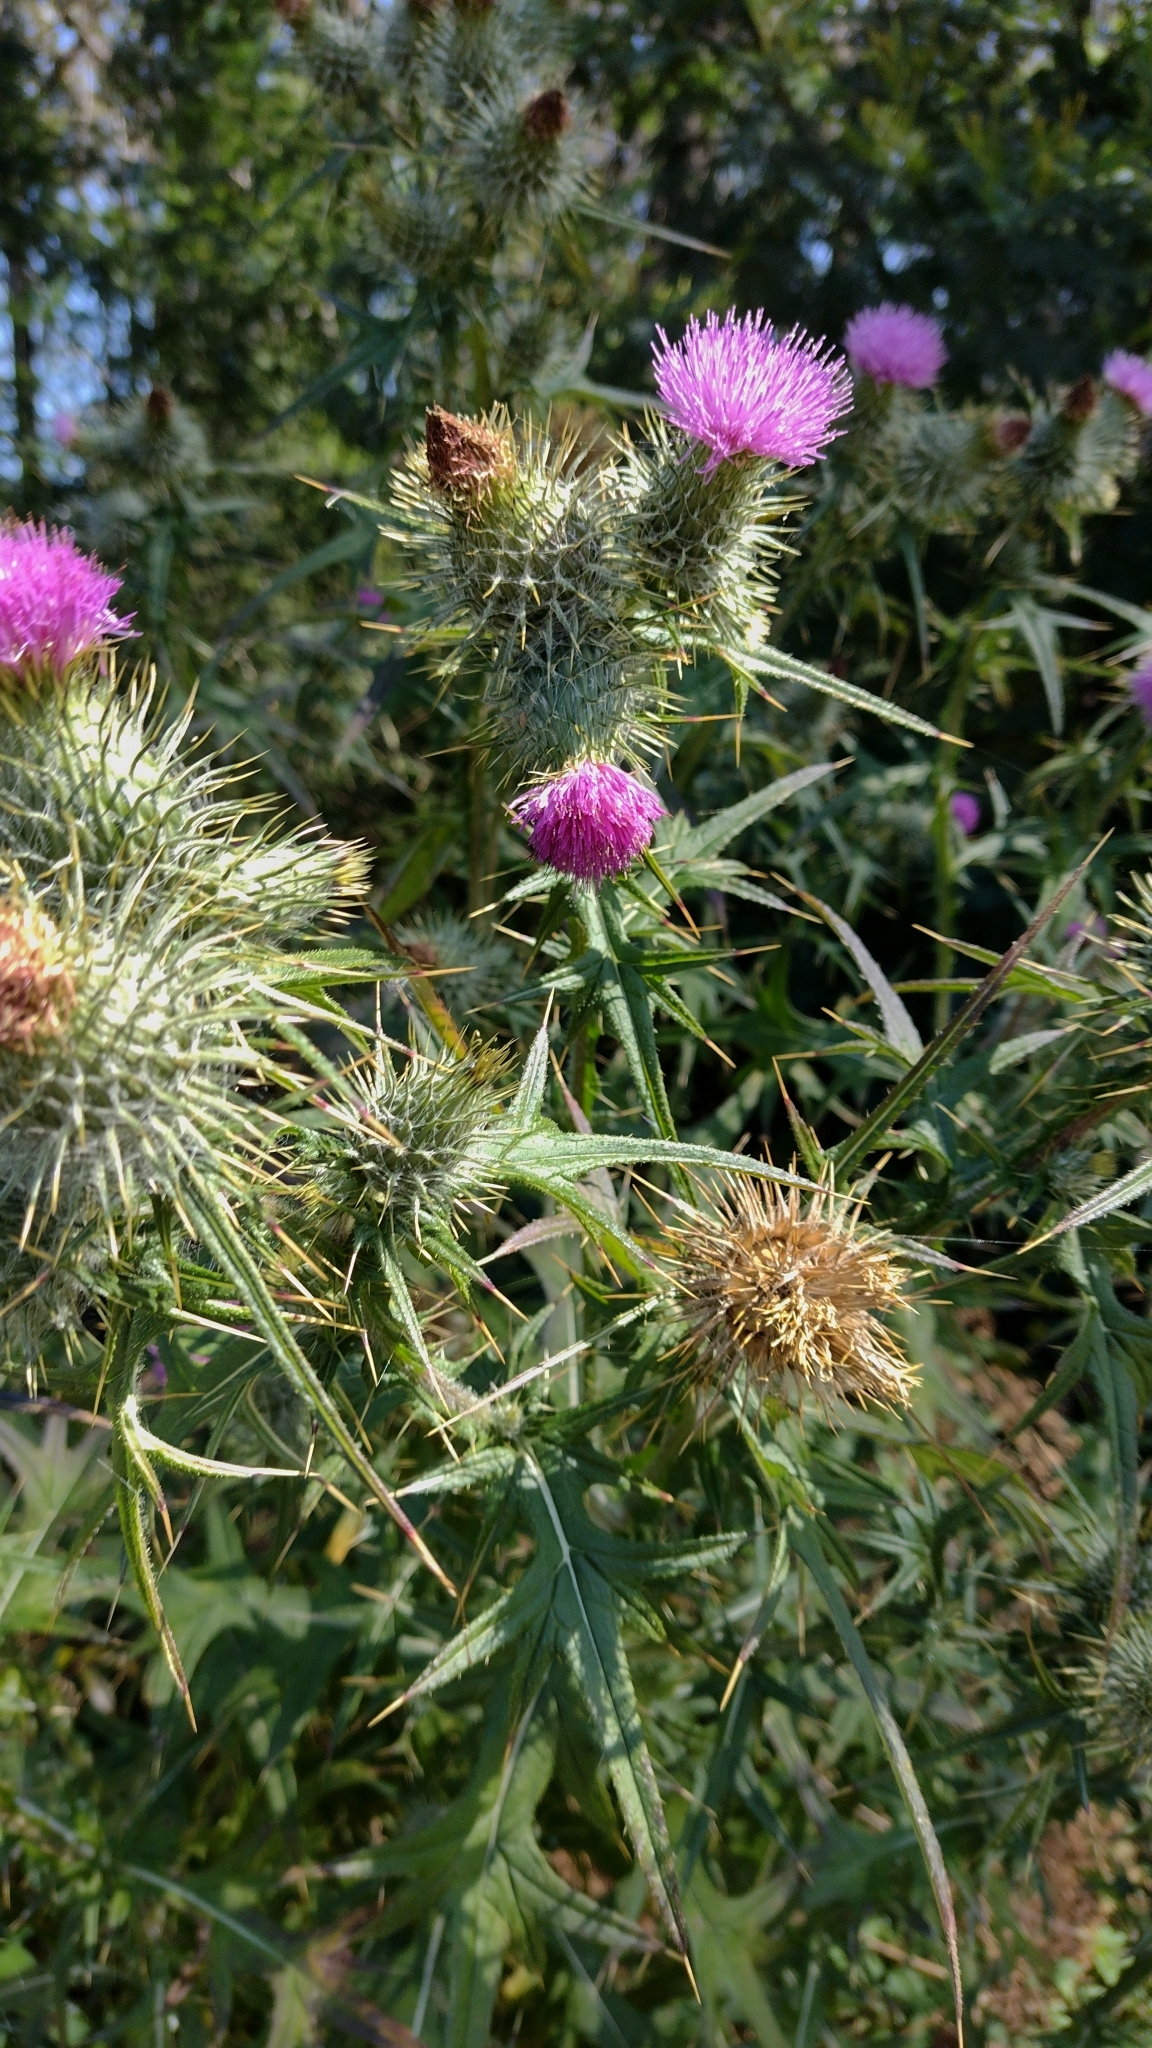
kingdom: Plantae
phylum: Tracheophyta
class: Magnoliopsida
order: Asterales
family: Asteraceae
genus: Cirsium
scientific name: Cirsium vulgare
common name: Bull thistle
